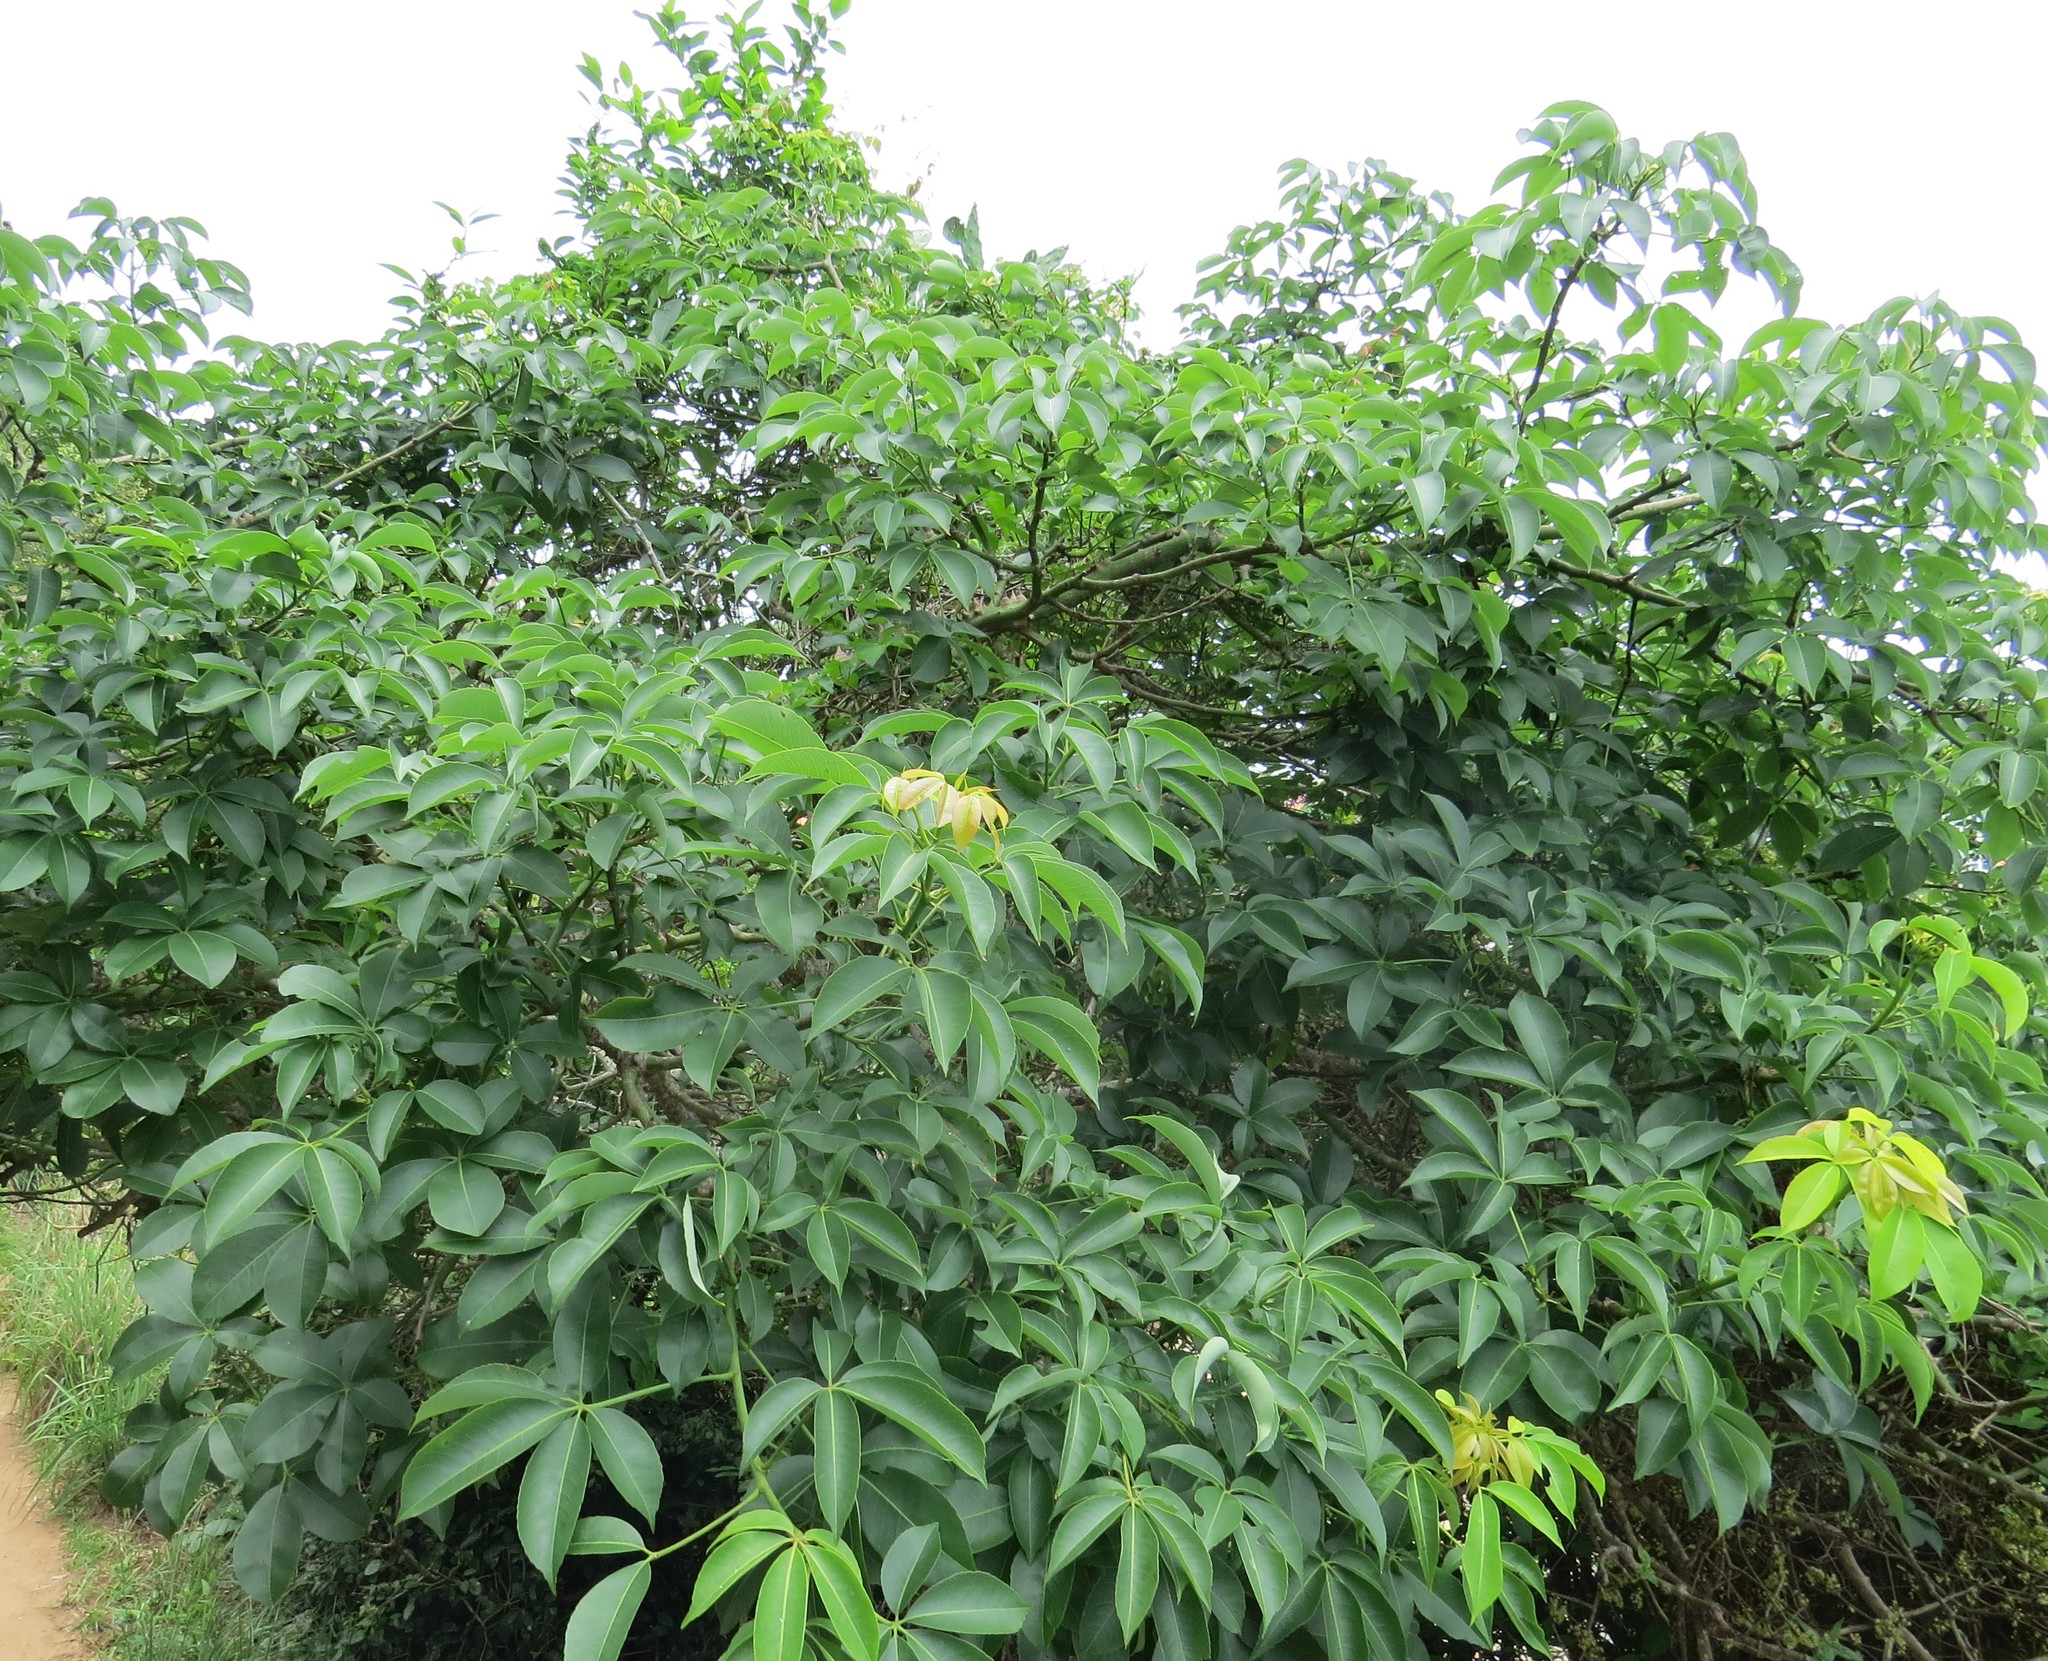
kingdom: Plantae
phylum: Tracheophyta
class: Magnoliopsida
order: Malvales
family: Malvaceae
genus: Ceiba
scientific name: Ceiba erianthos
